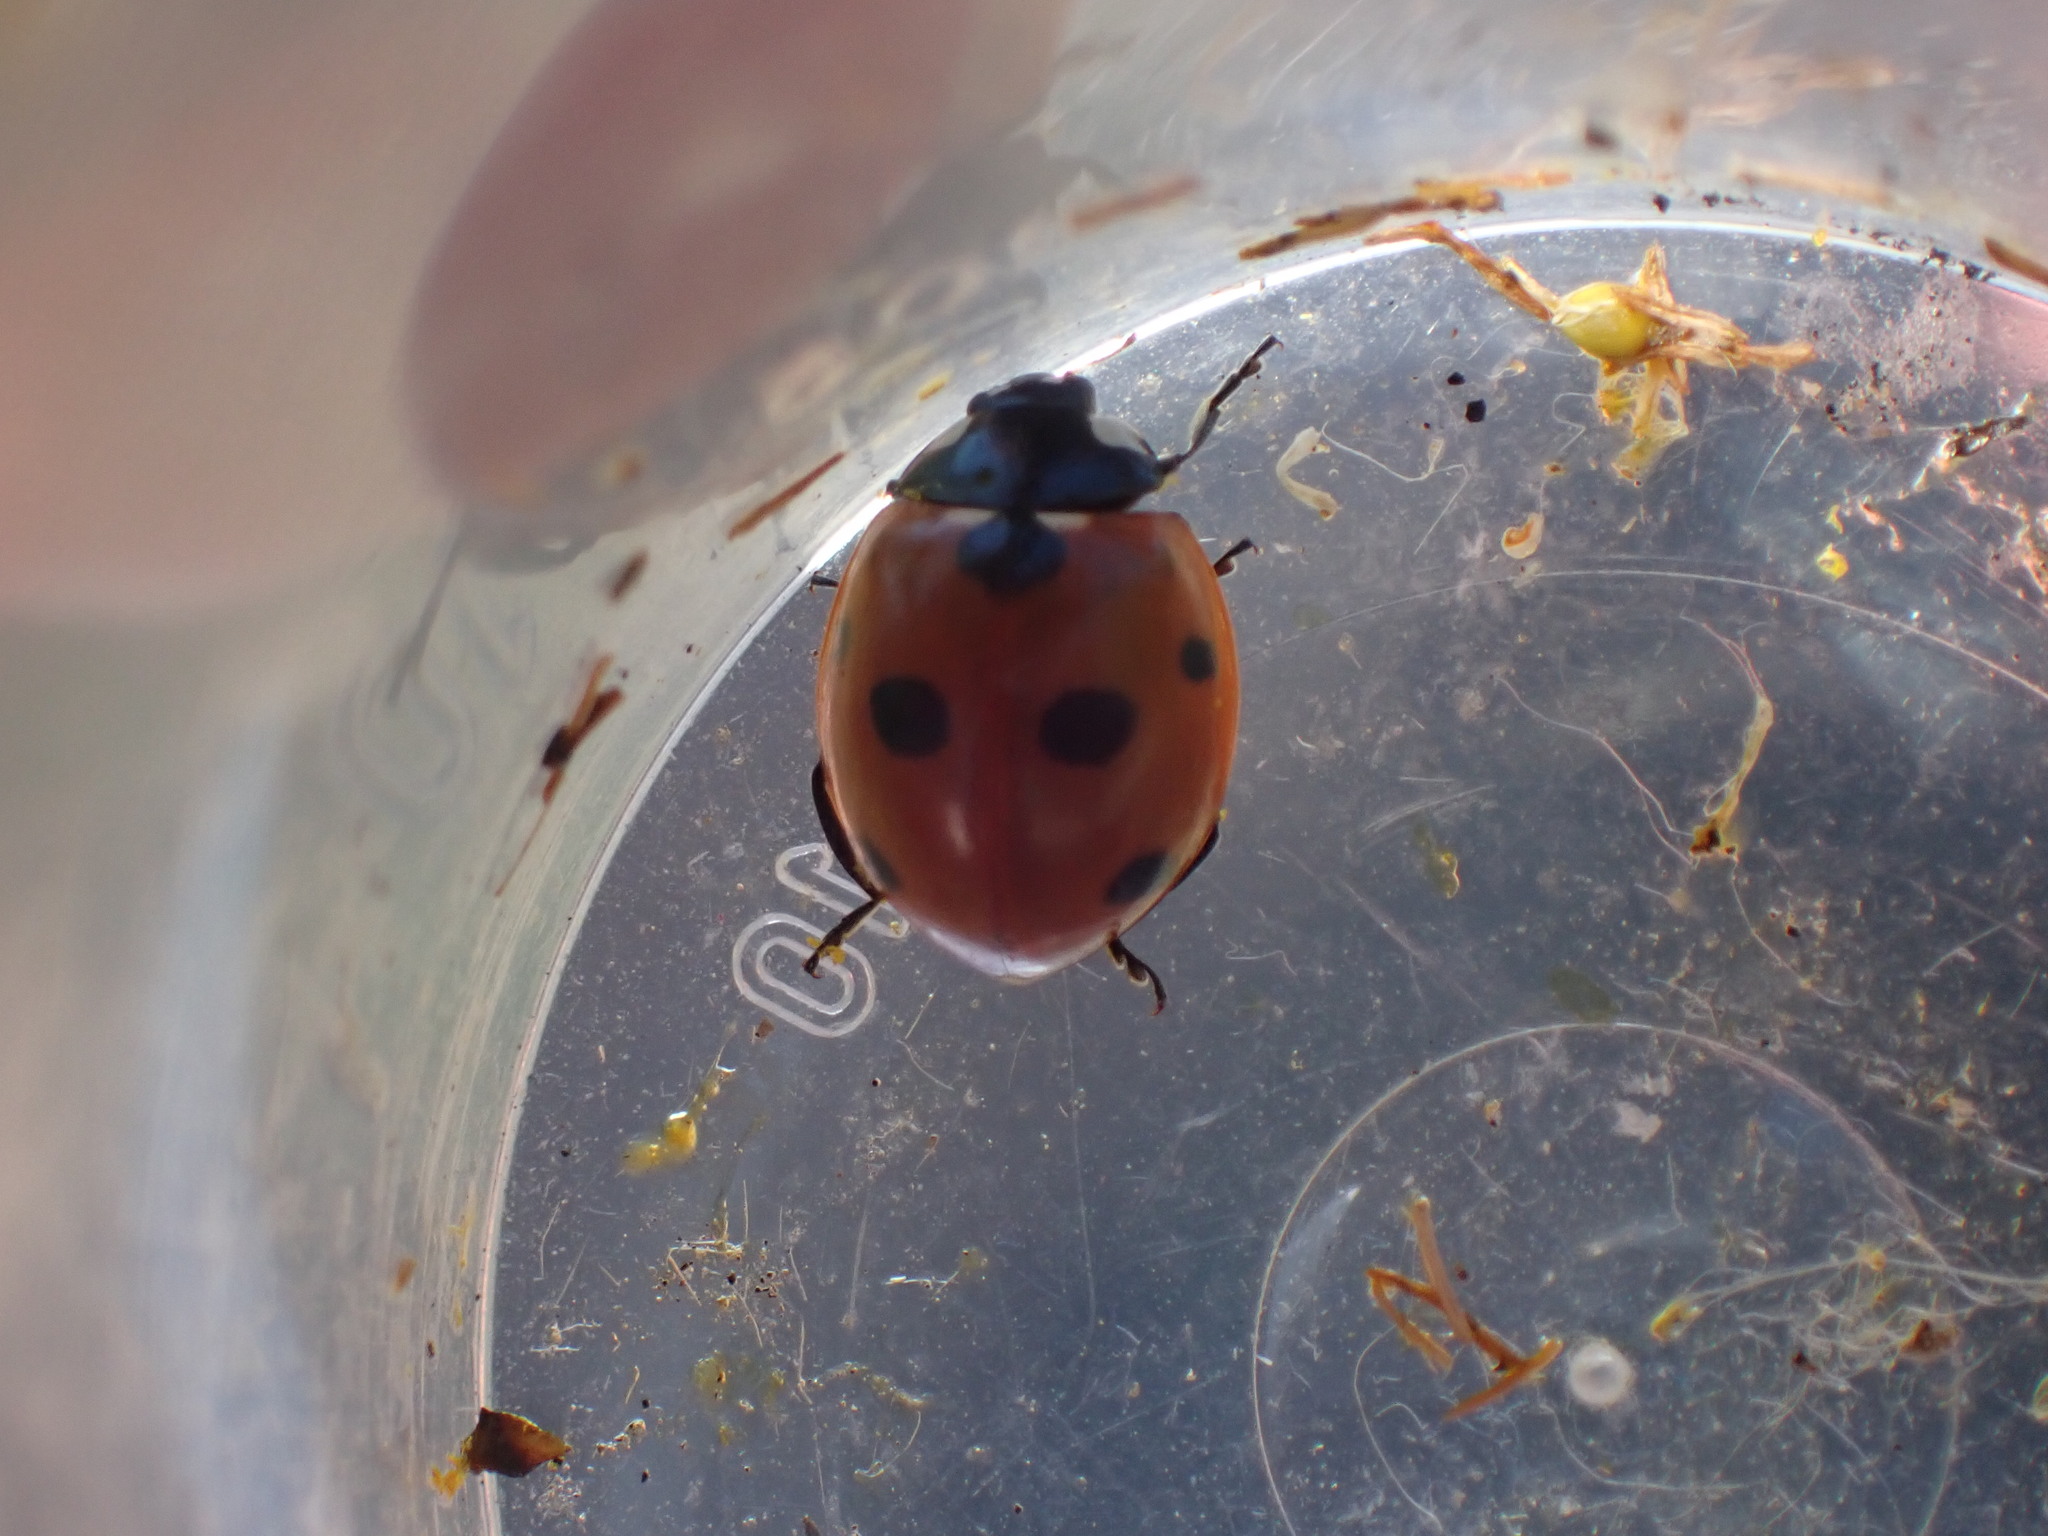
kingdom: Animalia
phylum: Arthropoda
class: Insecta
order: Coleoptera
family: Coccinellidae
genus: Coccinella
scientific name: Coccinella septempunctata
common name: Sevenspotted lady beetle
